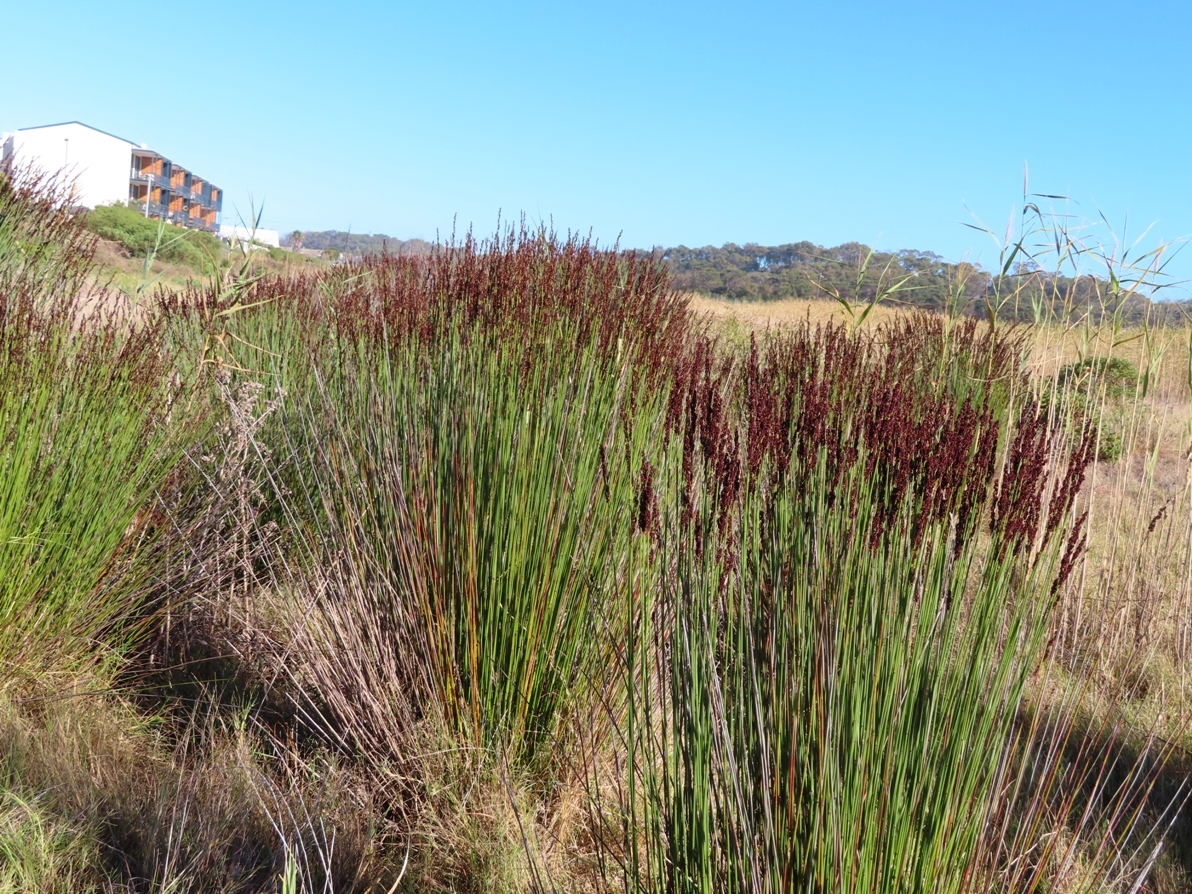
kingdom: Plantae
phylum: Tracheophyta
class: Liliopsida
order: Poales
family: Restionaceae
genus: Elegia
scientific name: Elegia tectorum
